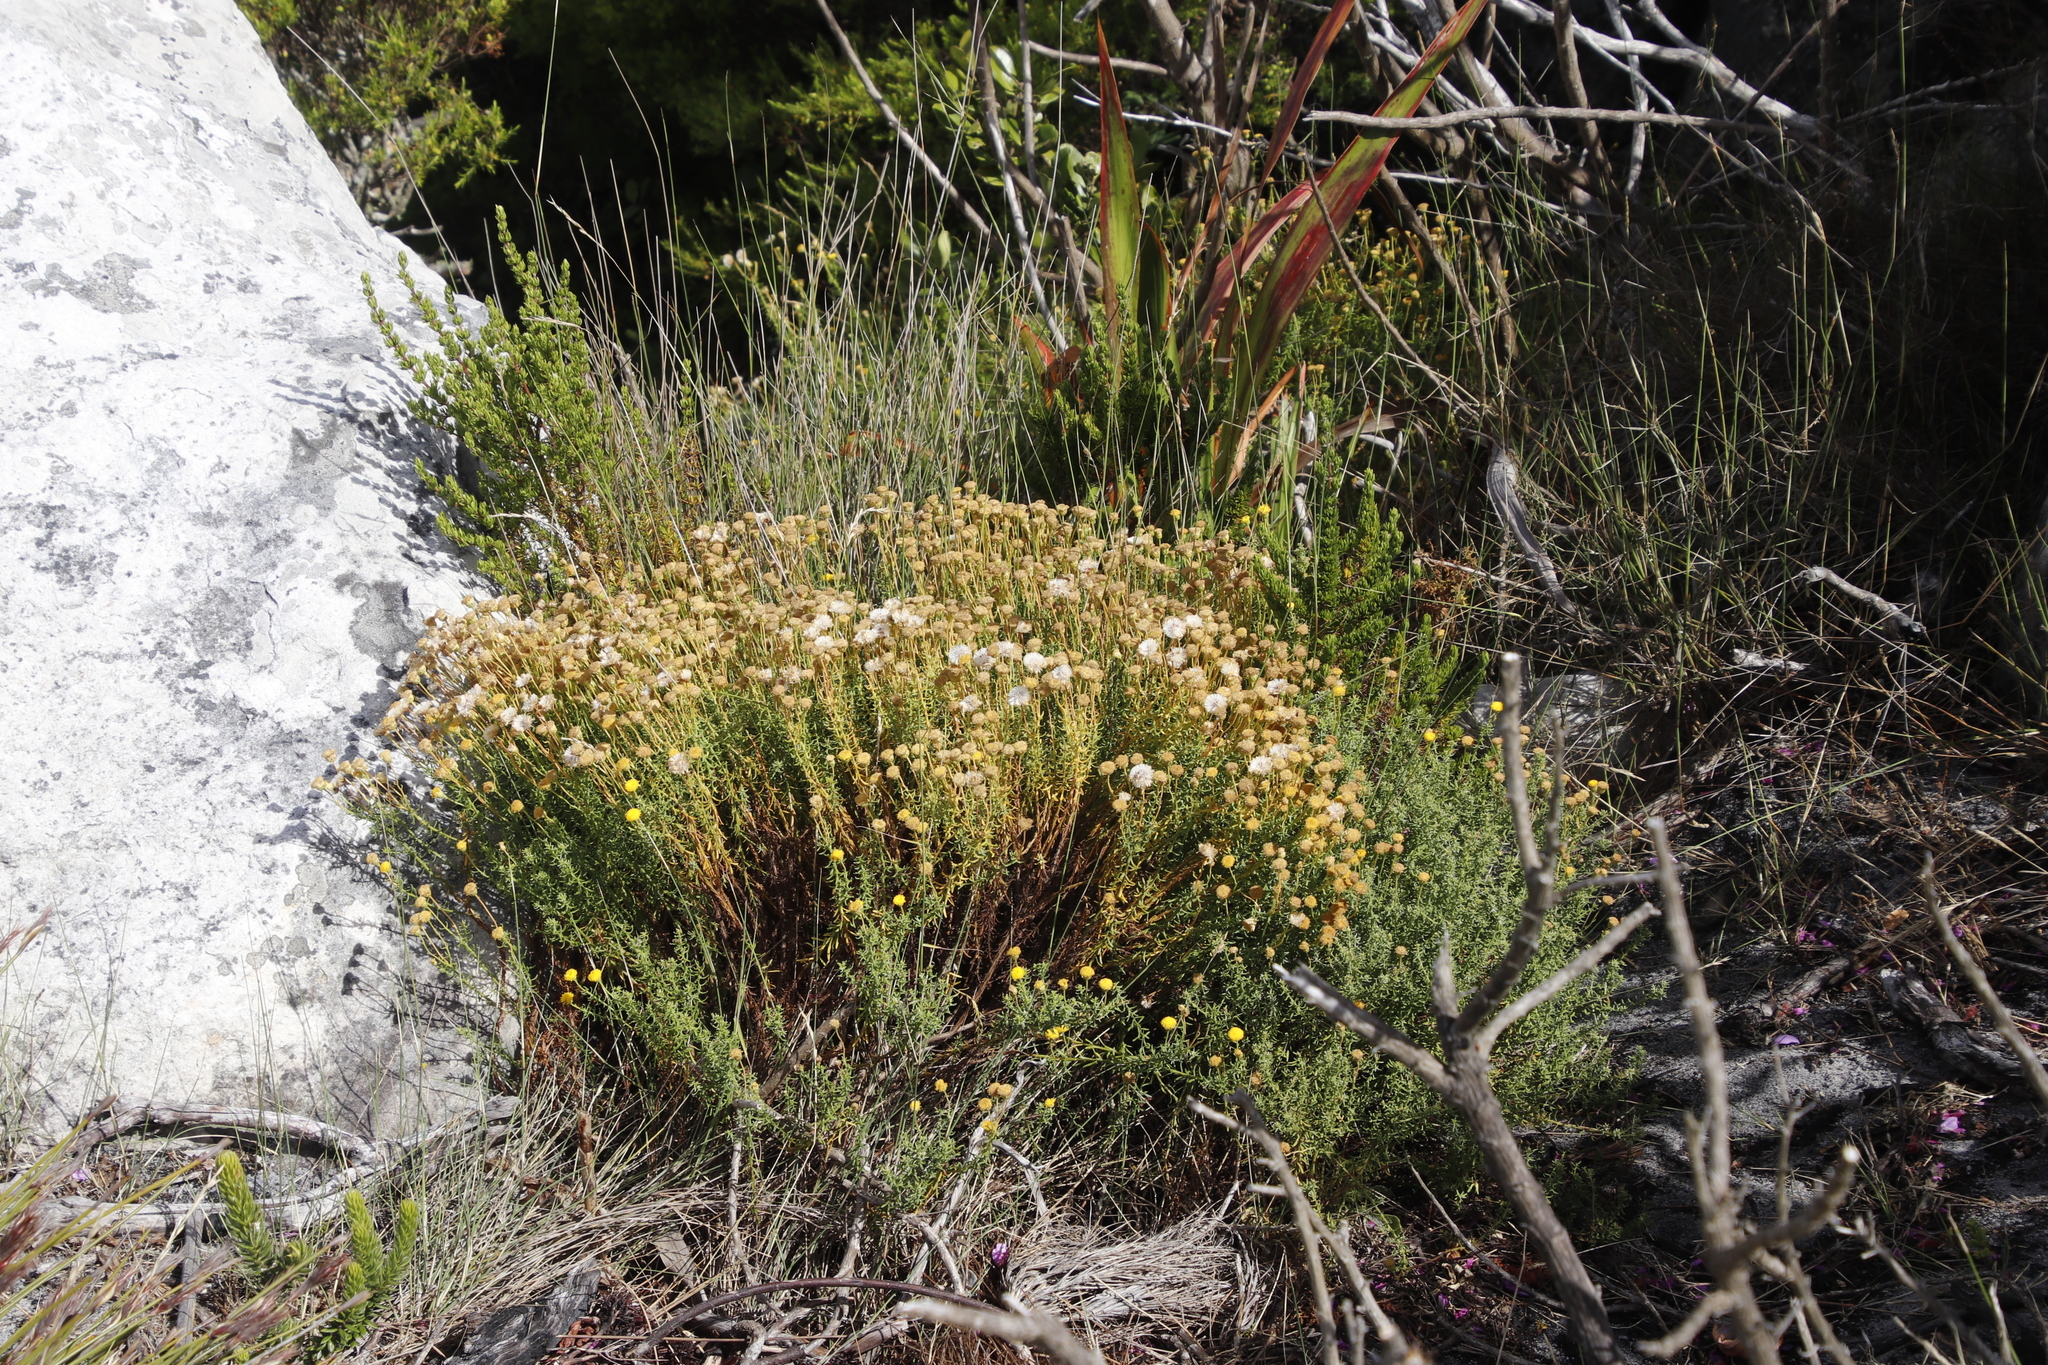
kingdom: Plantae
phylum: Tracheophyta
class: Magnoliopsida
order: Asterales
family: Asteraceae
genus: Chrysocoma
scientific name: Chrysocoma cernua
